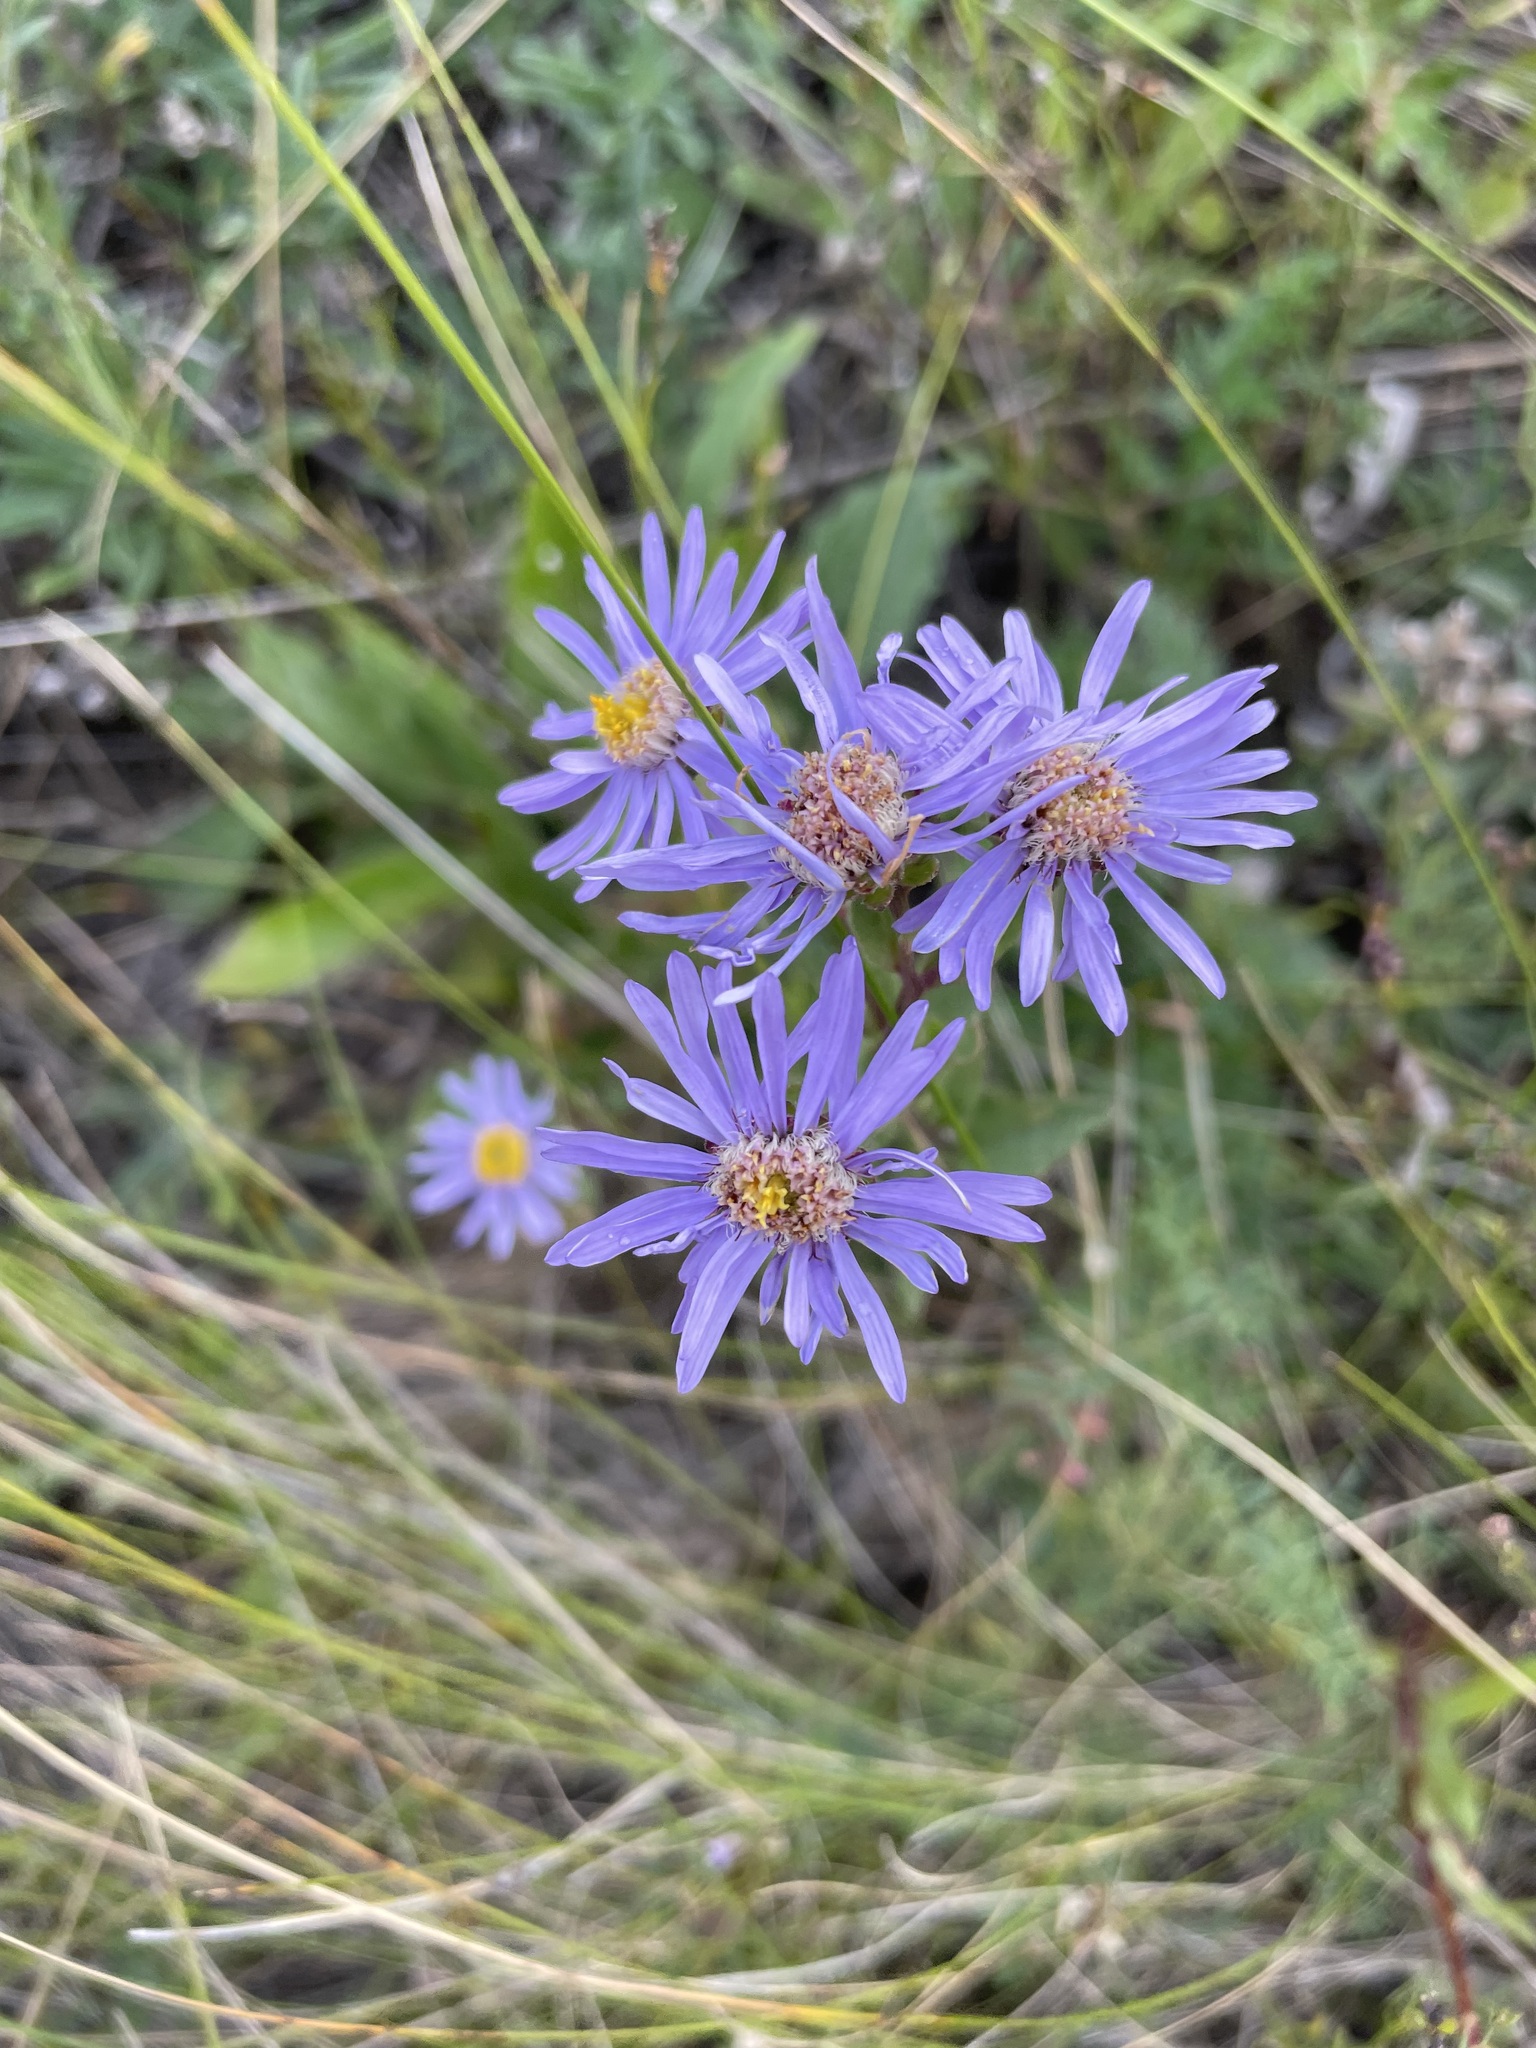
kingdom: Plantae
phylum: Tracheophyta
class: Magnoliopsida
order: Asterales
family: Asteraceae
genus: Aster
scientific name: Aster amellus
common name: European michaelmas daisy
